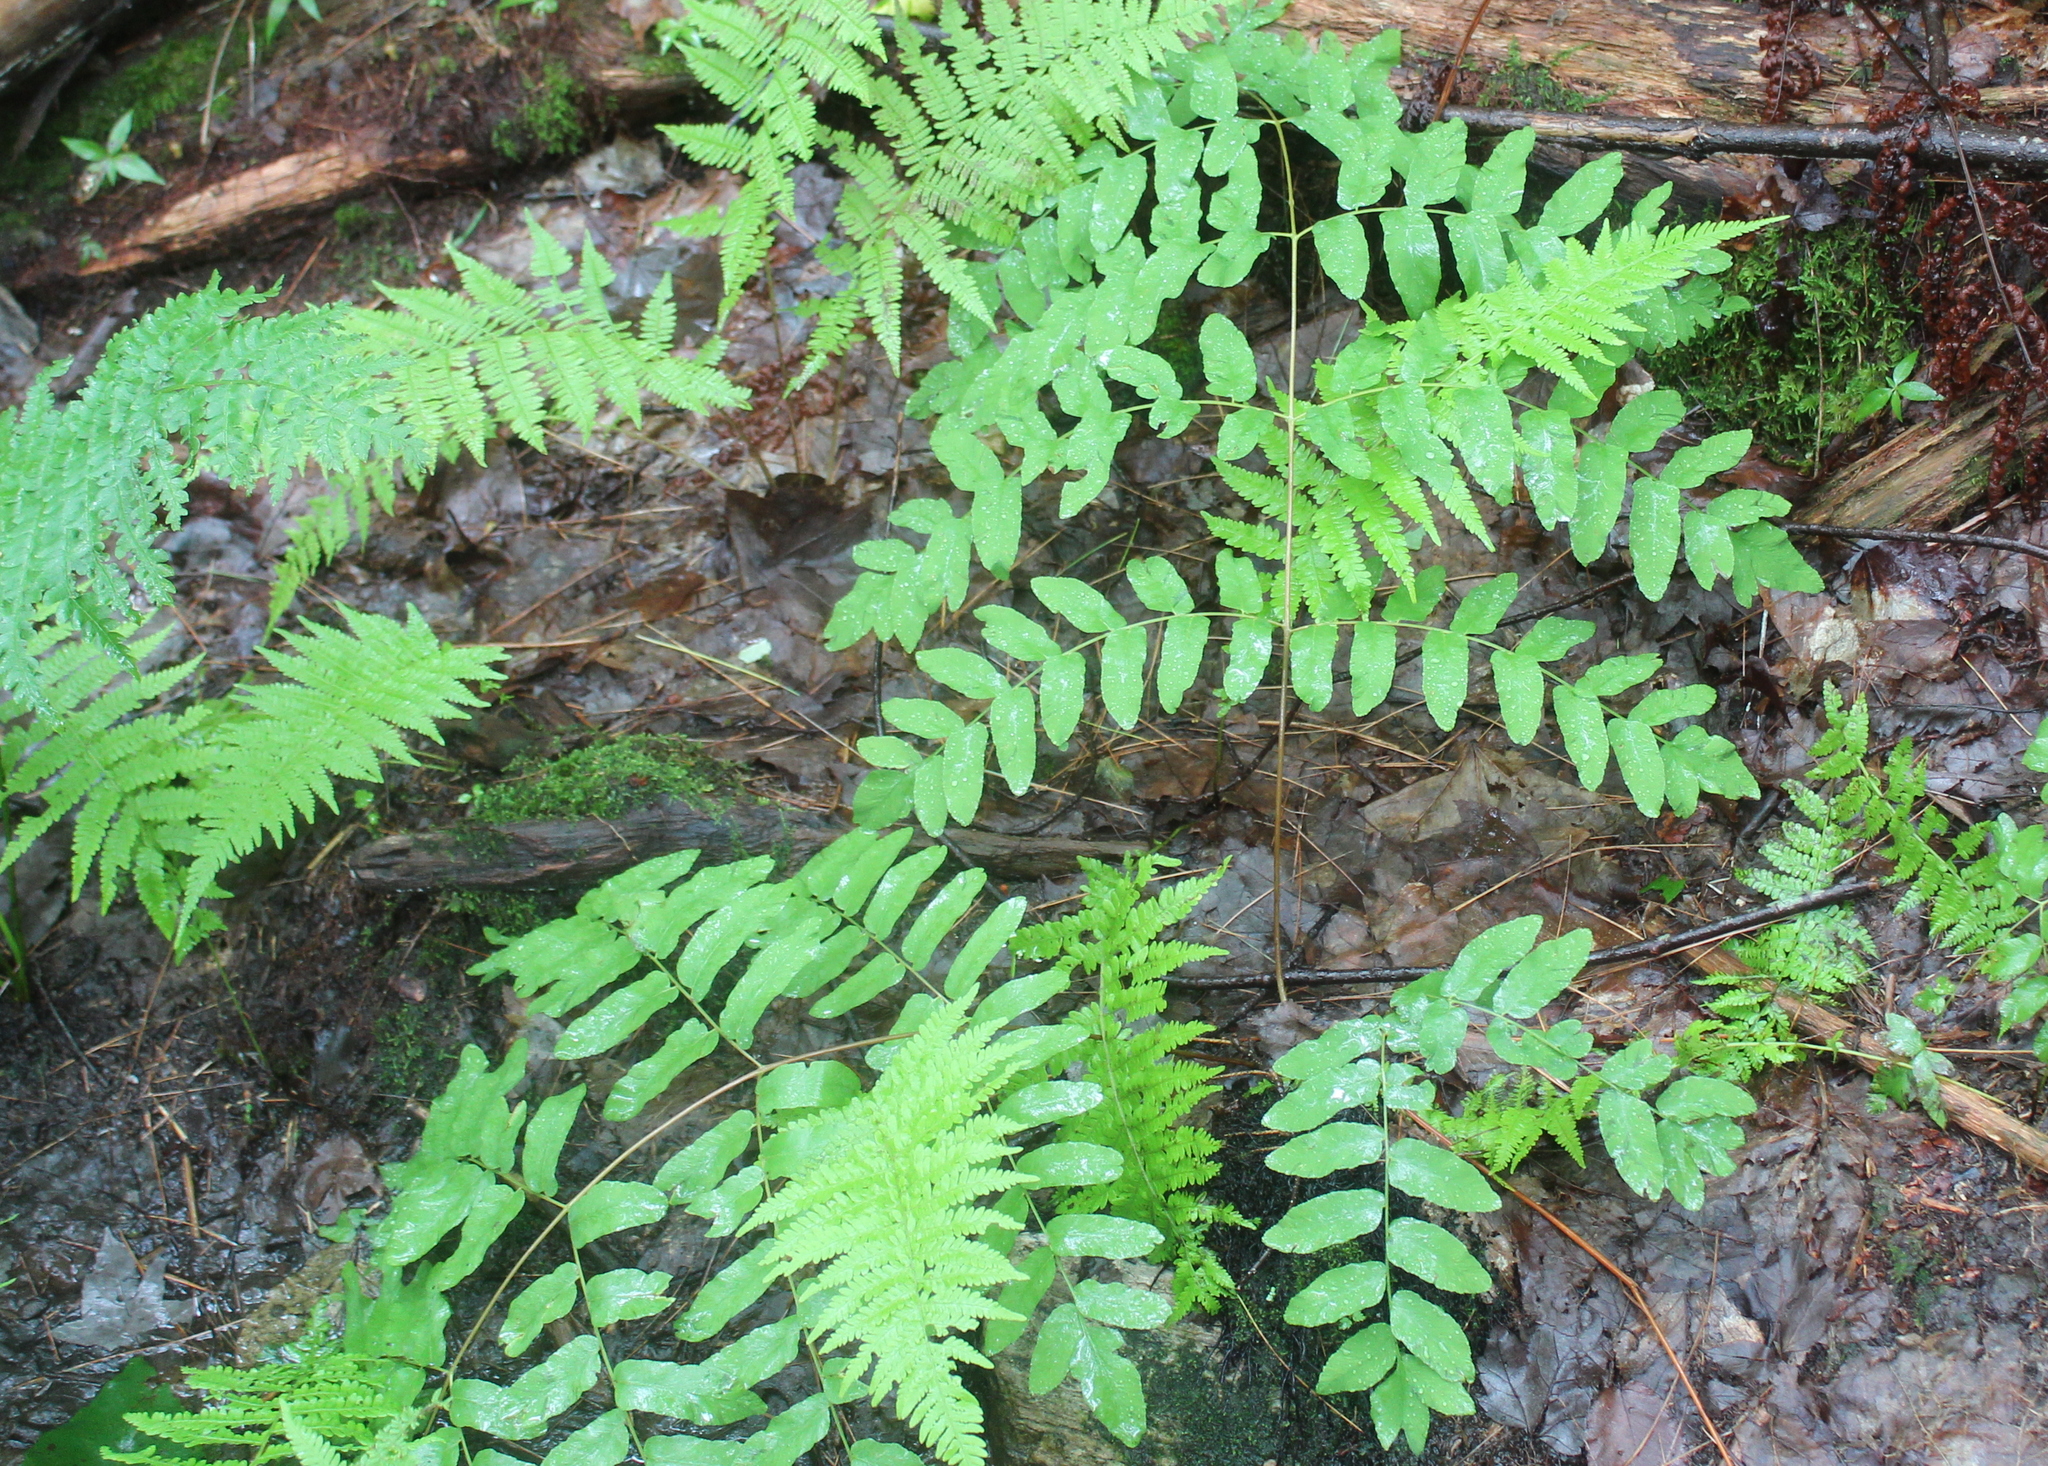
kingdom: Plantae
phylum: Tracheophyta
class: Polypodiopsida
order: Osmundales
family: Osmundaceae
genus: Osmunda
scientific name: Osmunda spectabilis
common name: American royal fern
